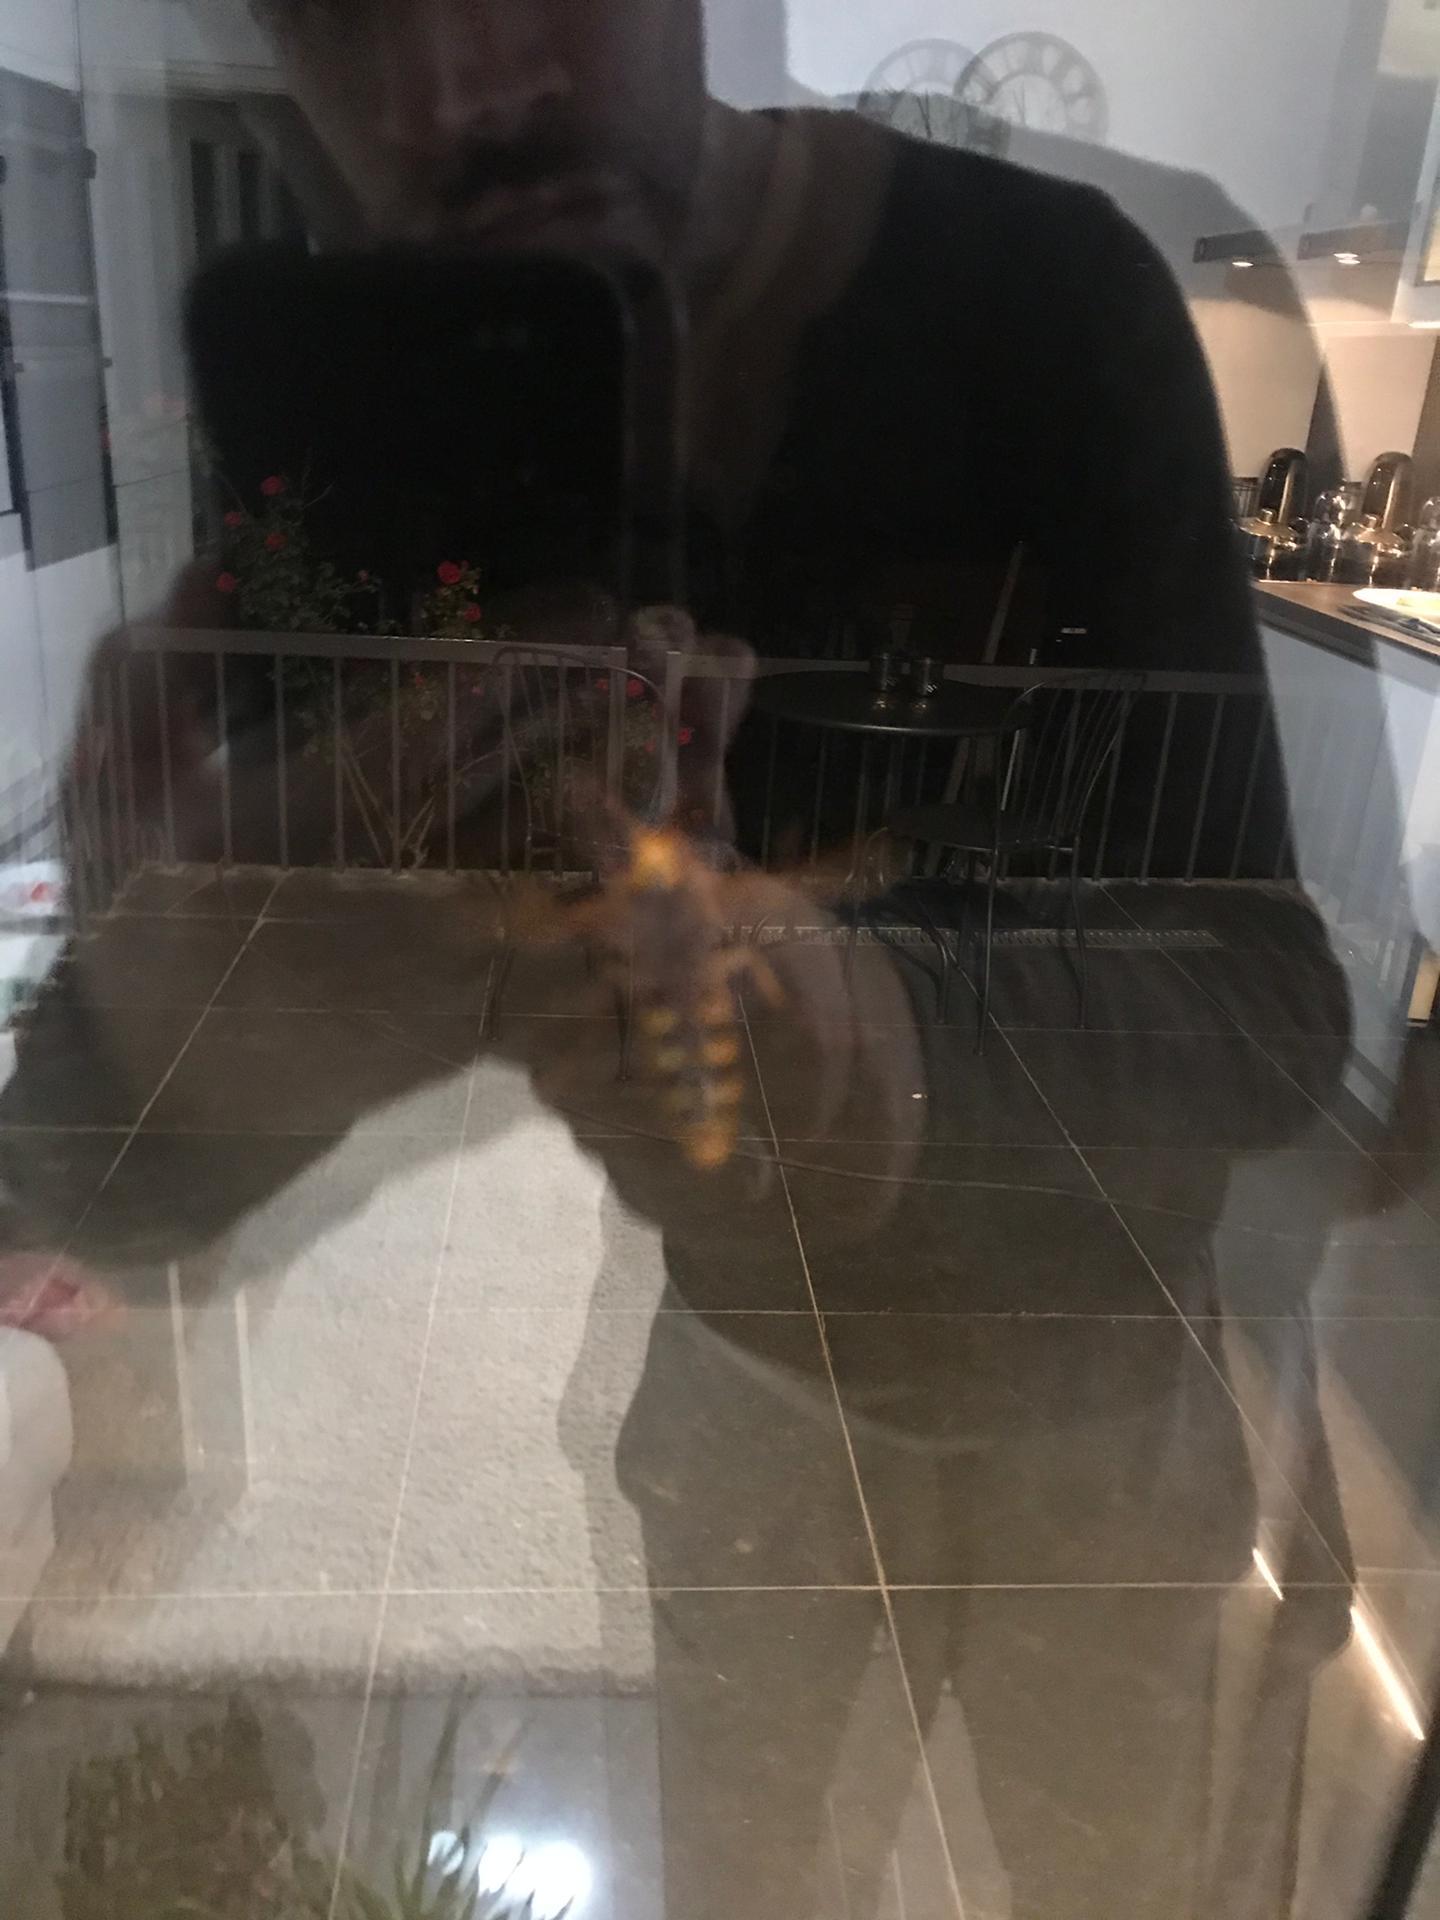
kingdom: Animalia
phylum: Arthropoda
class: Insecta
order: Hymenoptera
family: Vespidae
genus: Vespa
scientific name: Vespa crabro
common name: Hornet
